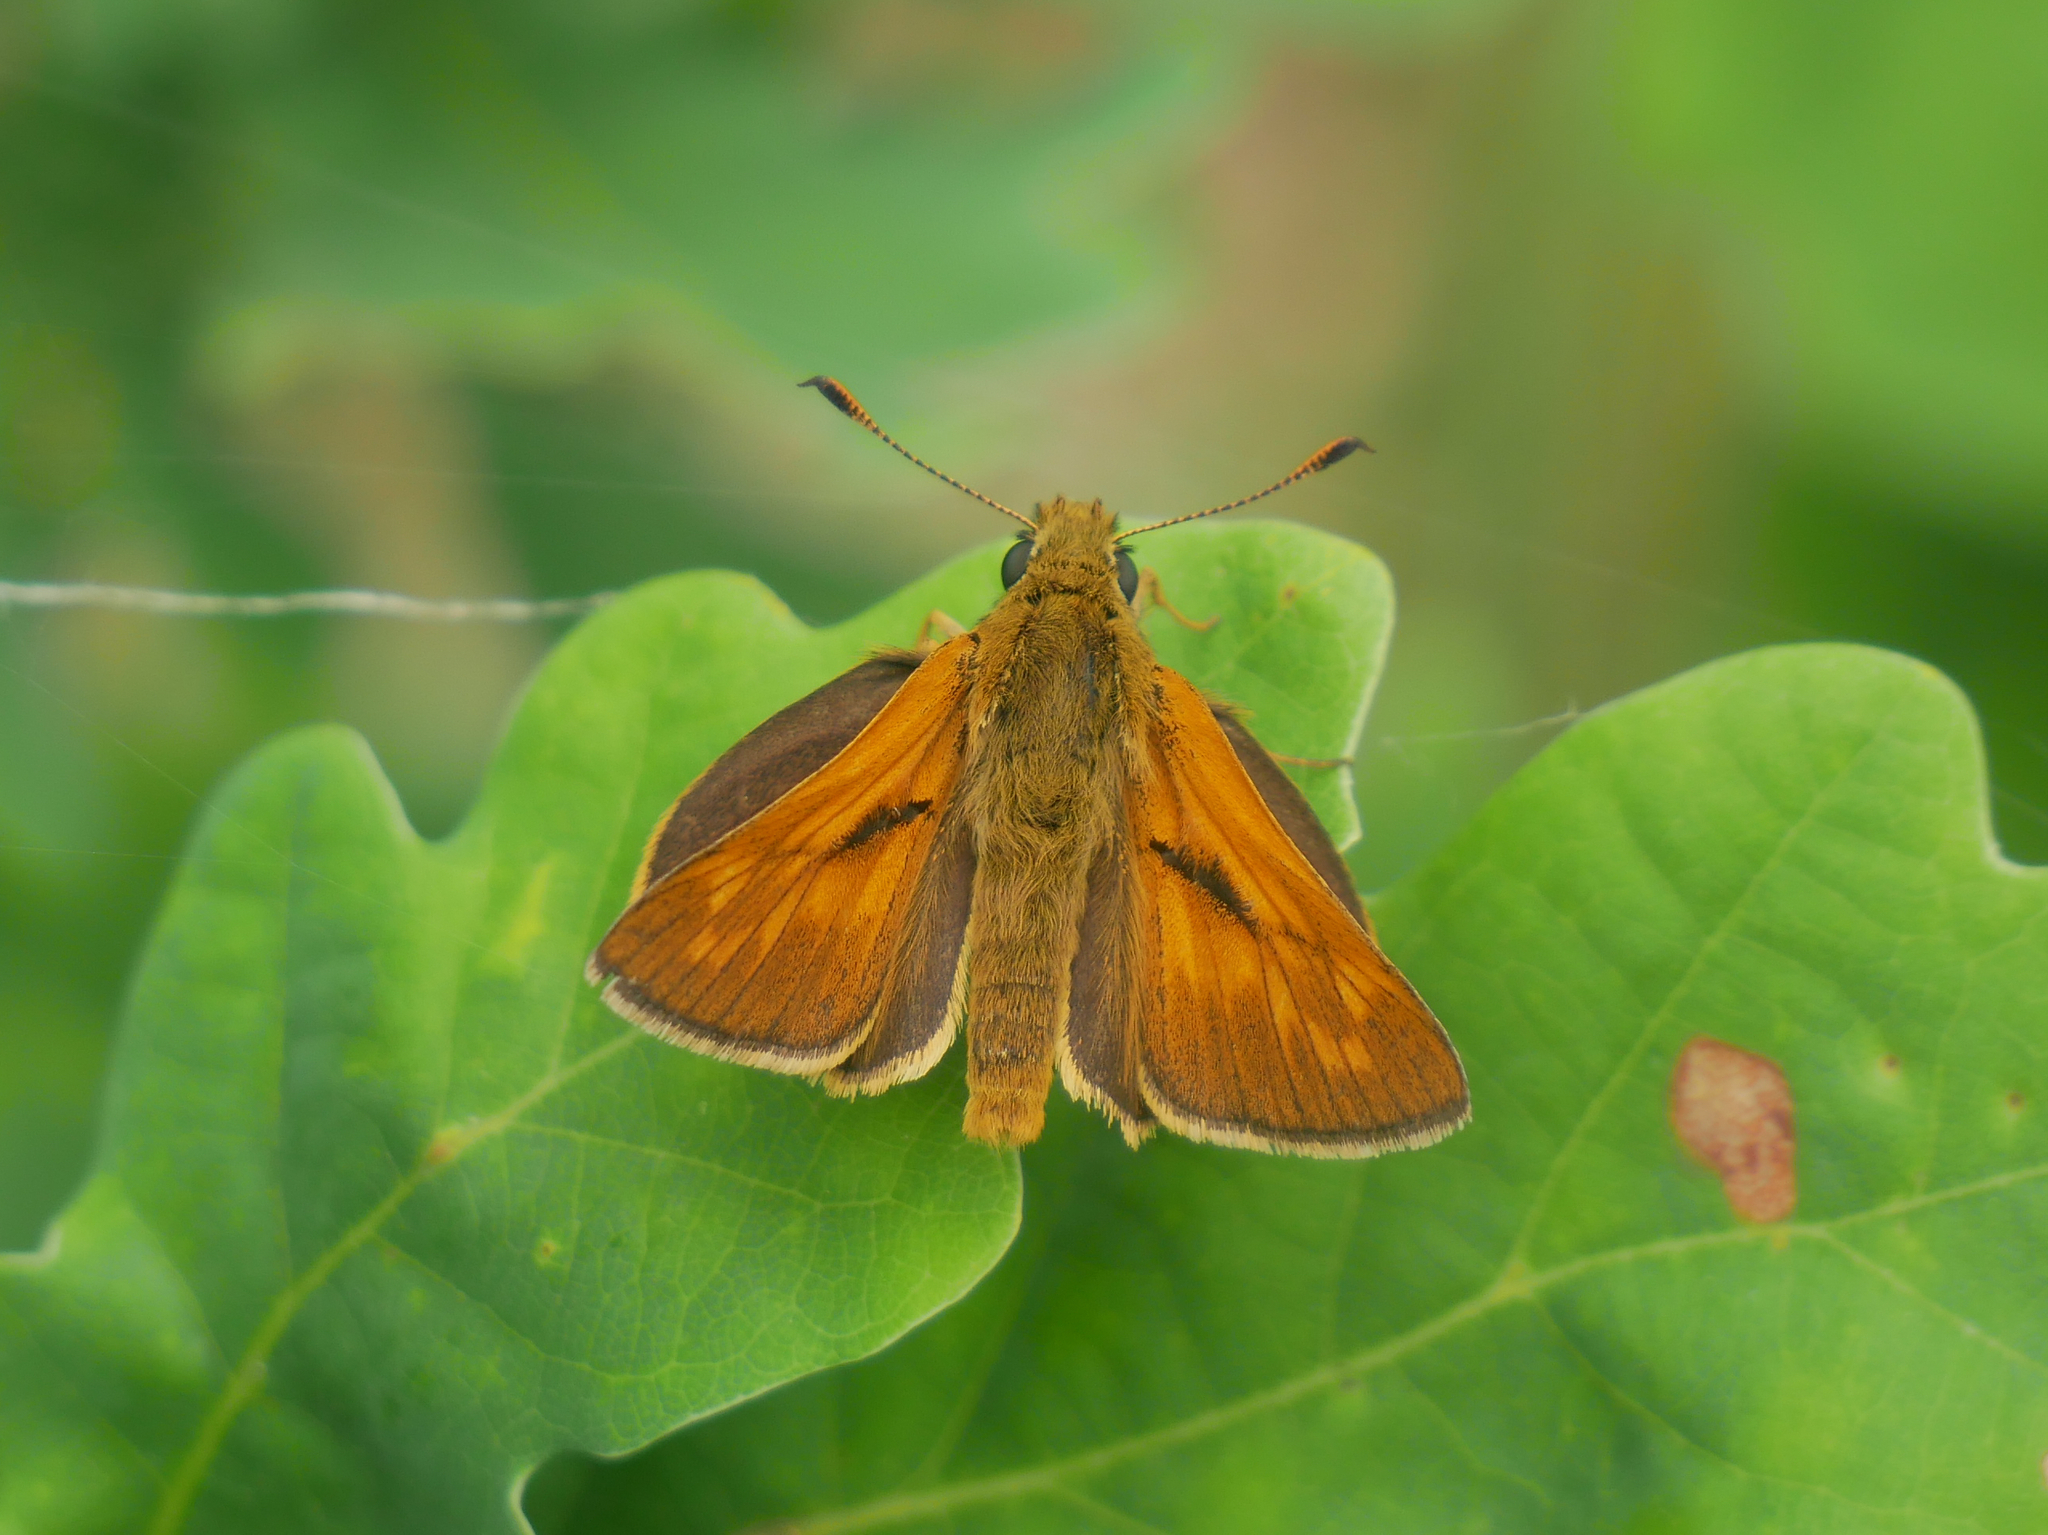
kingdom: Animalia
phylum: Arthropoda
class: Insecta
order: Lepidoptera
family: Hesperiidae
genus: Ochlodes
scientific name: Ochlodes venata
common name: Large skipper
